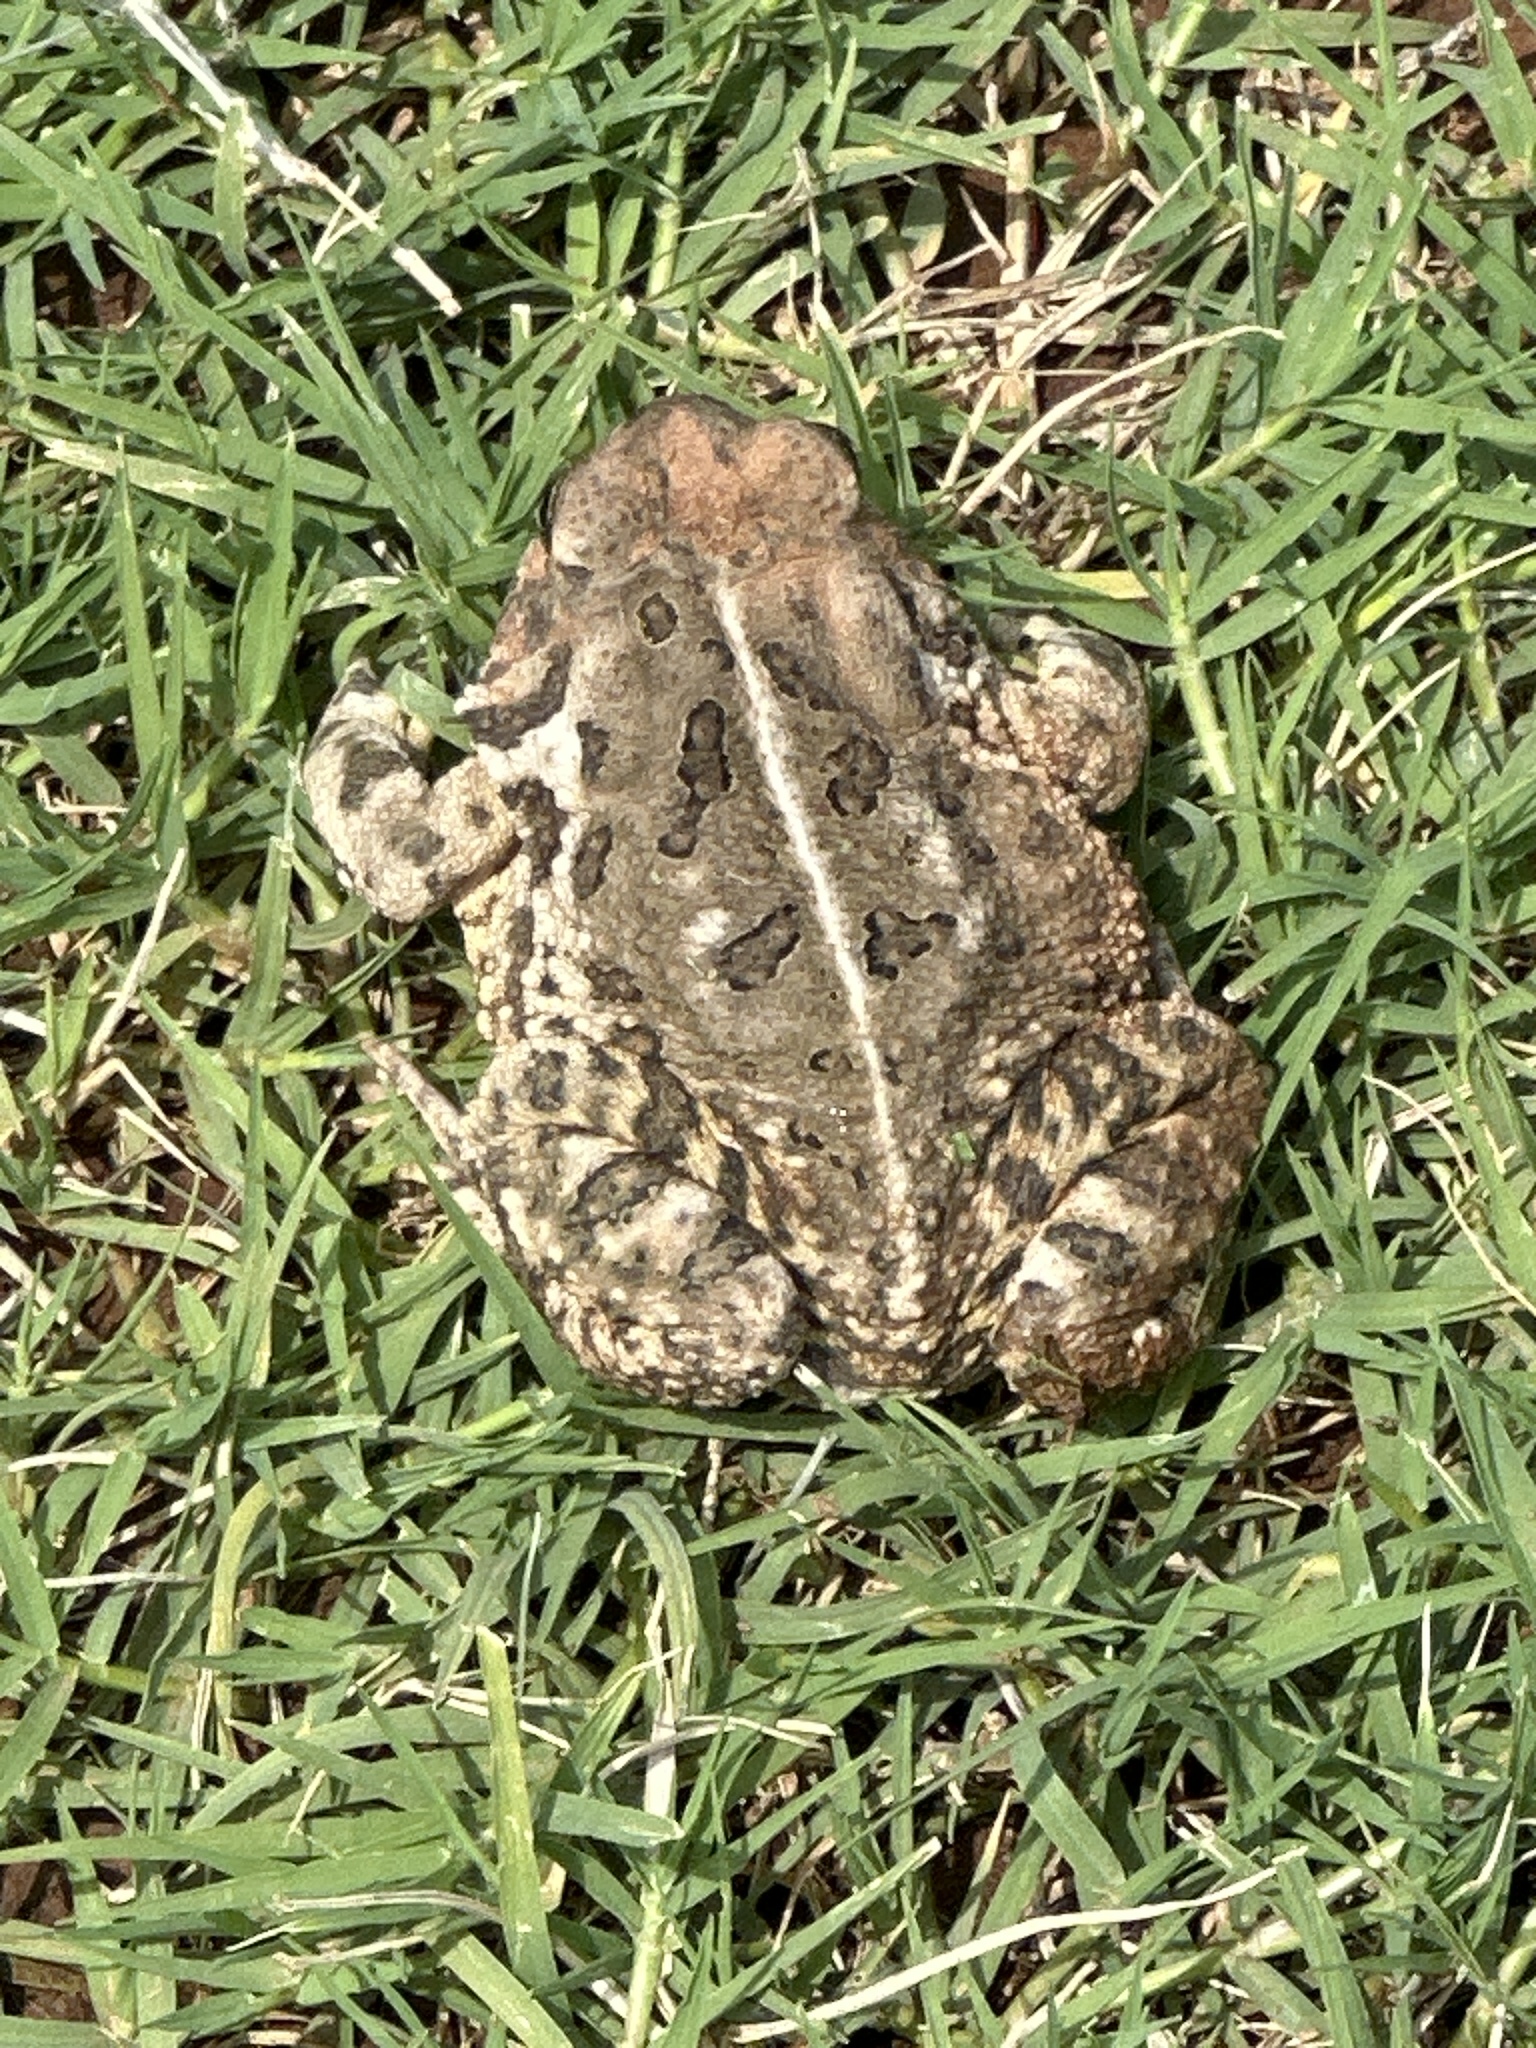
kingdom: Animalia
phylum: Chordata
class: Amphibia
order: Anura
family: Bufonidae
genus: Anaxyrus
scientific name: Anaxyrus woodhousii
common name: Woodhouse's toad
